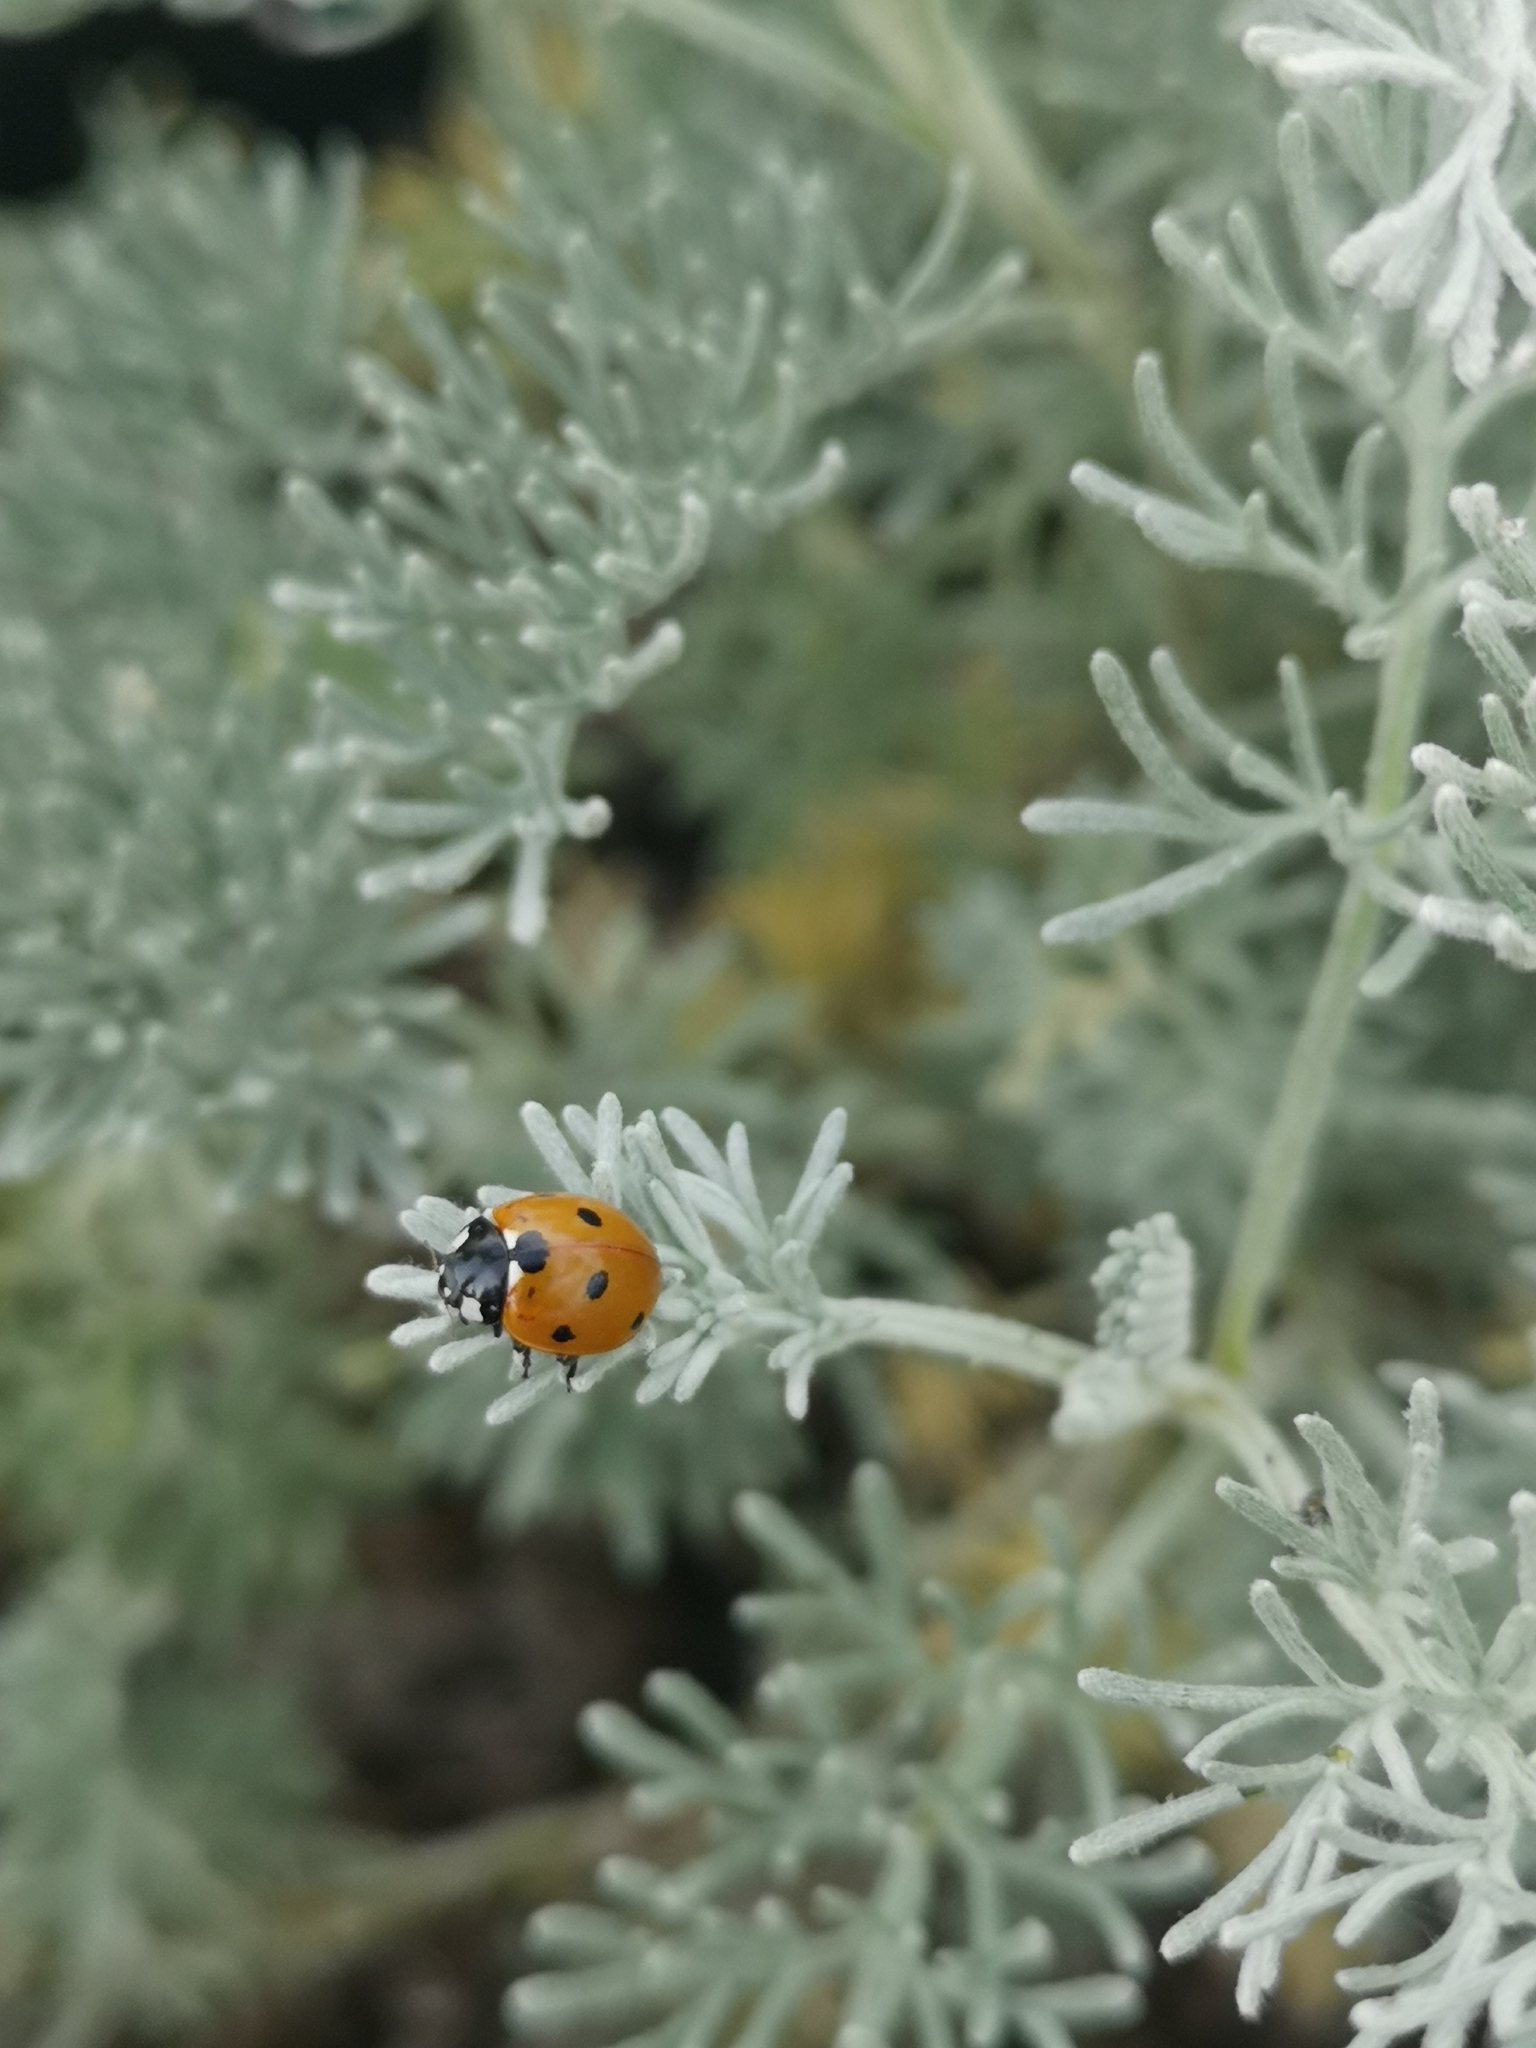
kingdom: Animalia
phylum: Arthropoda
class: Insecta
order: Coleoptera
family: Coccinellidae
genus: Coccinella
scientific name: Coccinella septempunctata
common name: Sevenspotted lady beetle
